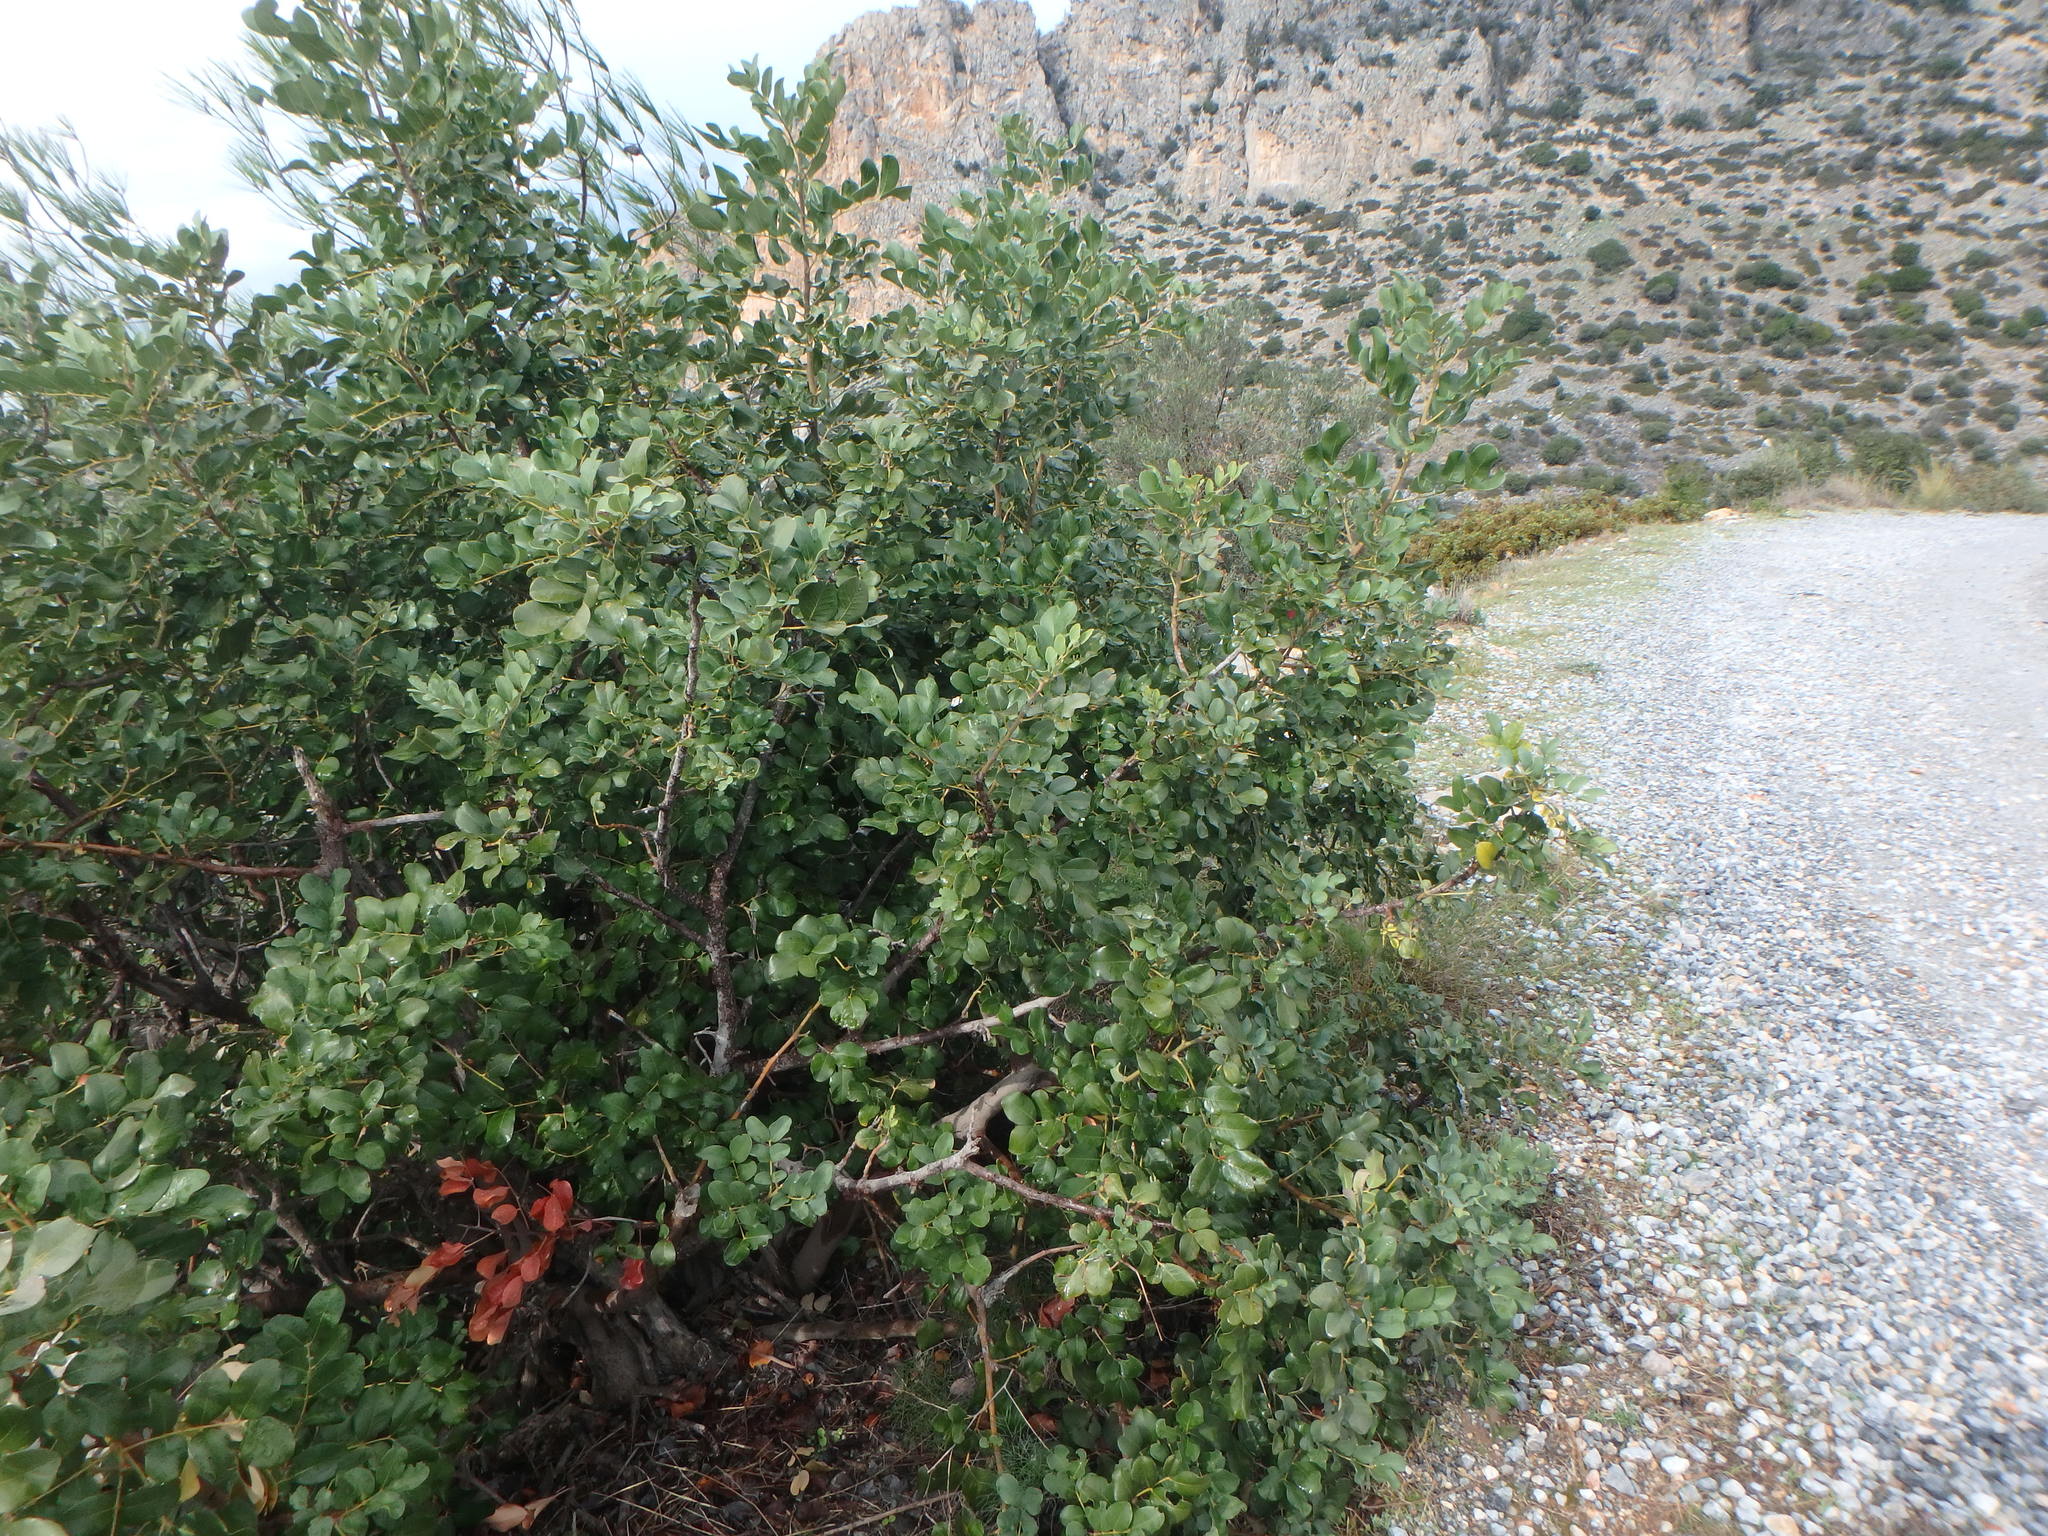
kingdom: Plantae
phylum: Tracheophyta
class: Magnoliopsida
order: Fabales
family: Fabaceae
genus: Ceratonia
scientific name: Ceratonia siliqua
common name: Carob
